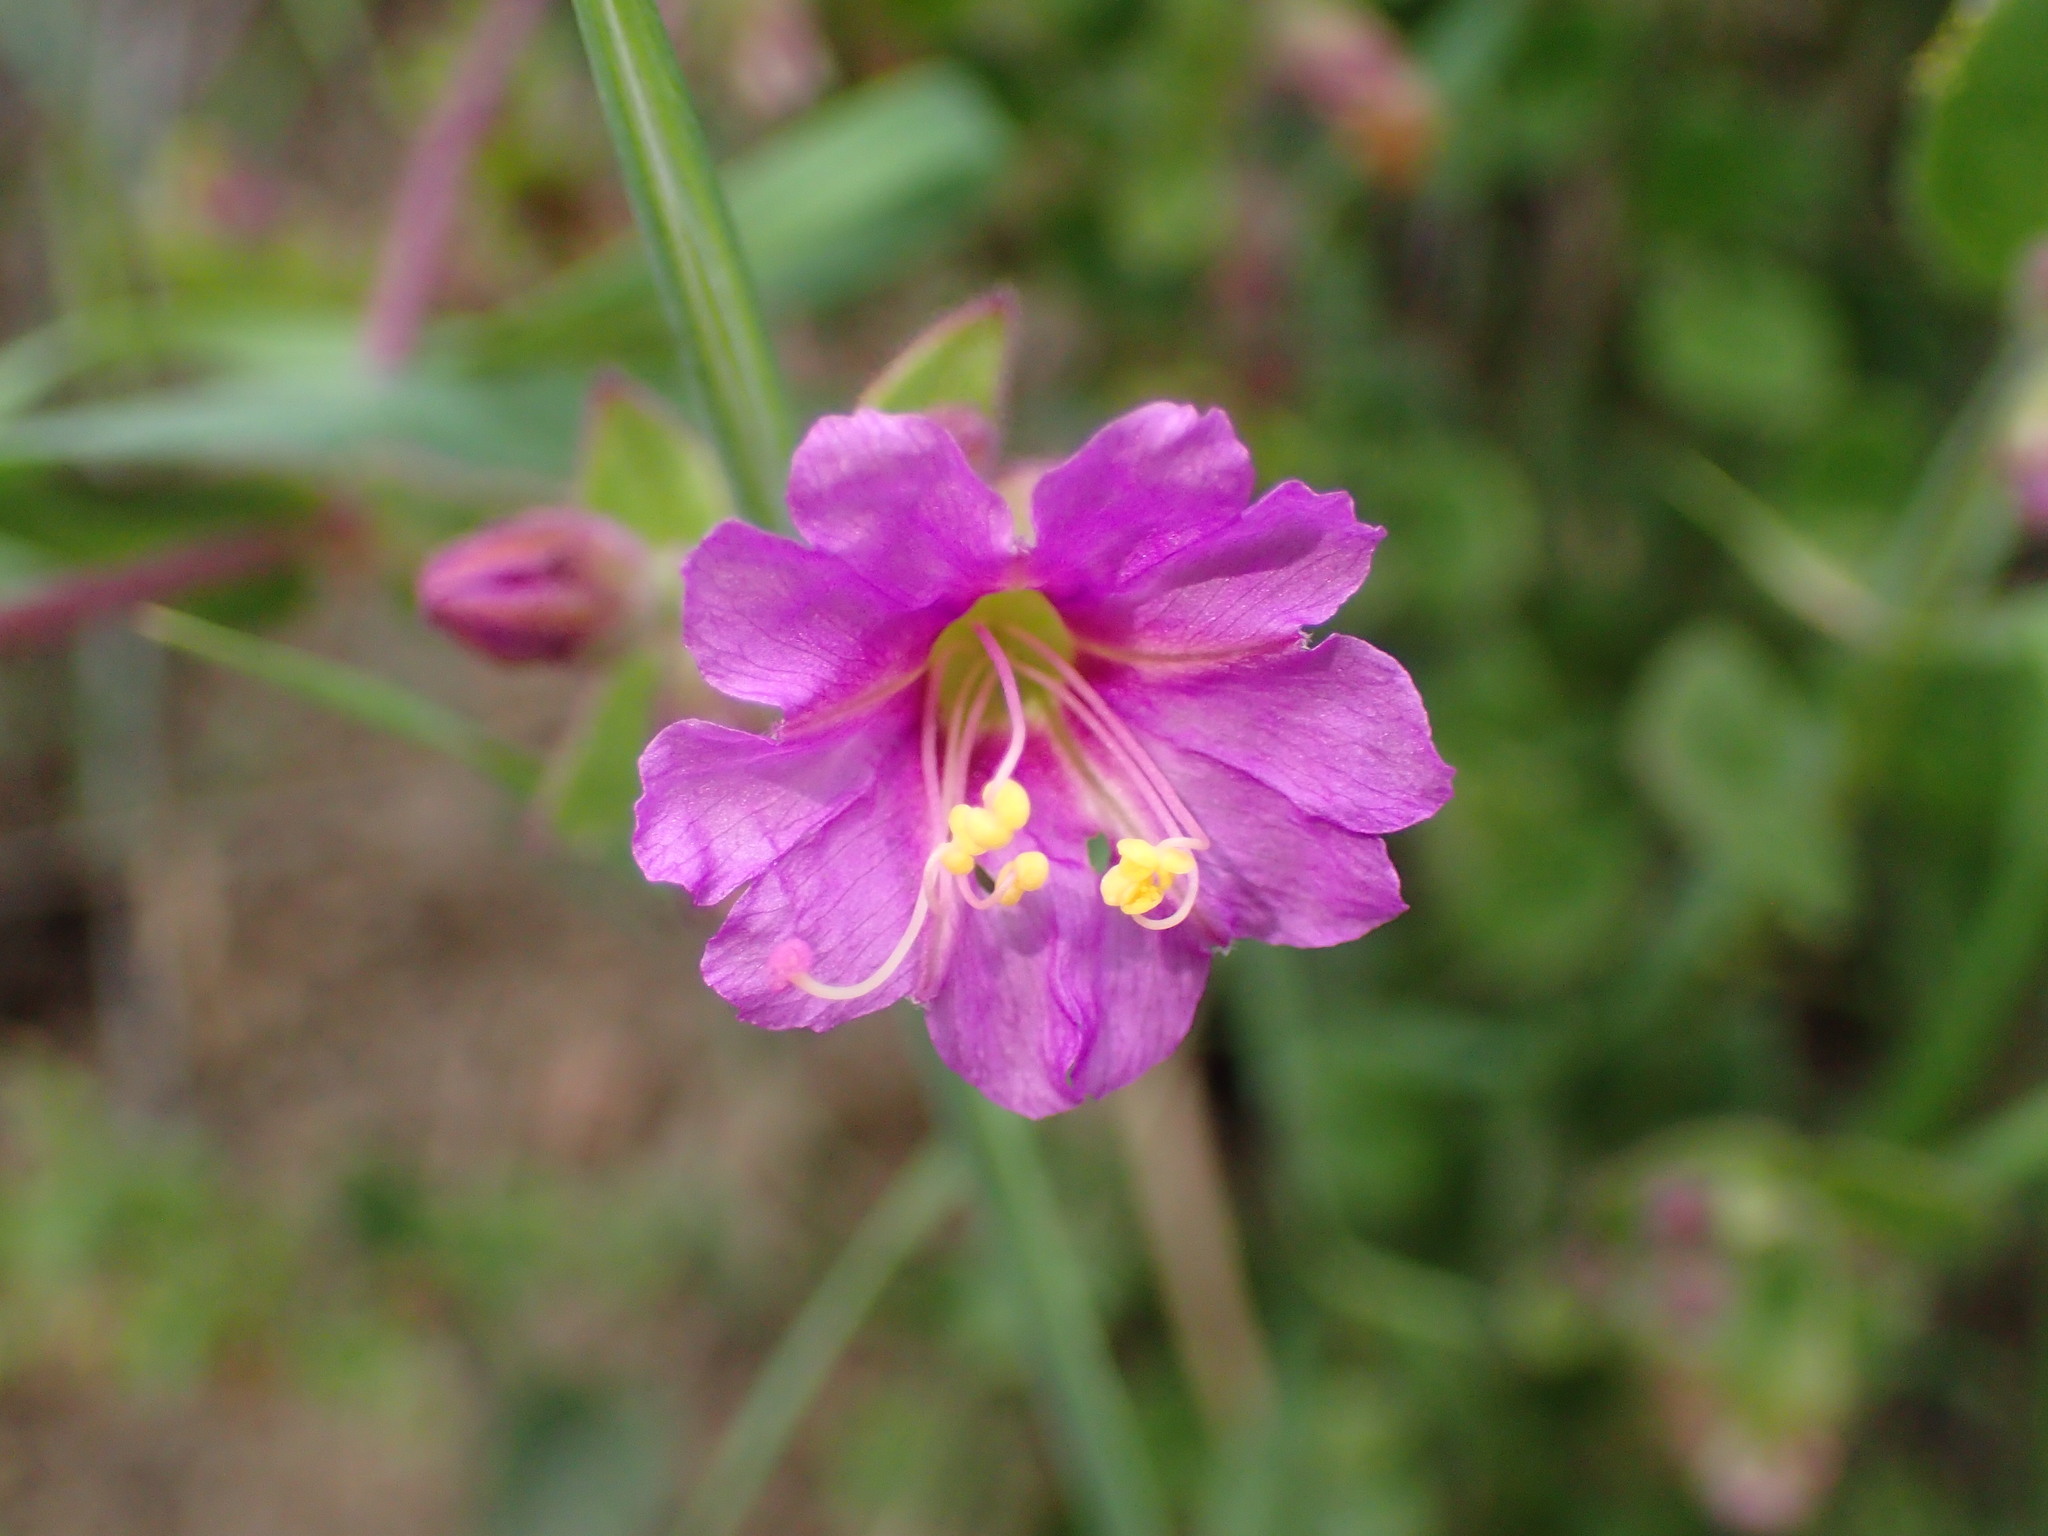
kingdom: Plantae
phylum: Tracheophyta
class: Magnoliopsida
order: Caryophyllales
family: Nyctaginaceae
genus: Mirabilis
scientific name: Mirabilis laevis
